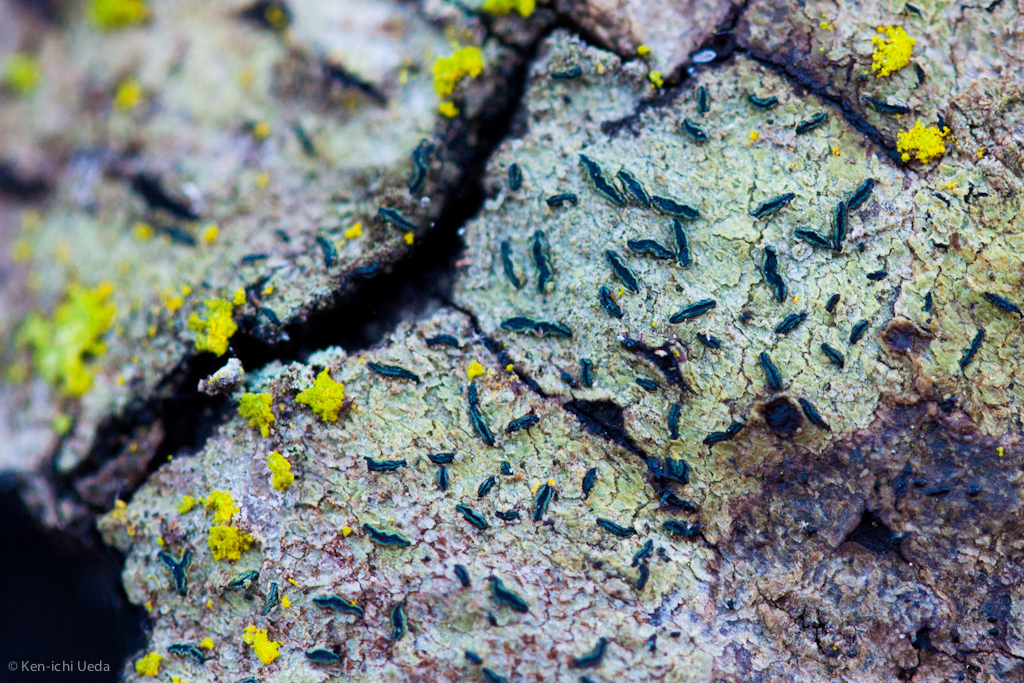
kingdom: Fungi
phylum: Ascomycota
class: Lecanoromycetes
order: Ostropales
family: Graphidaceae
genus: Graphis
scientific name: Graphis scripta
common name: Script lichen
